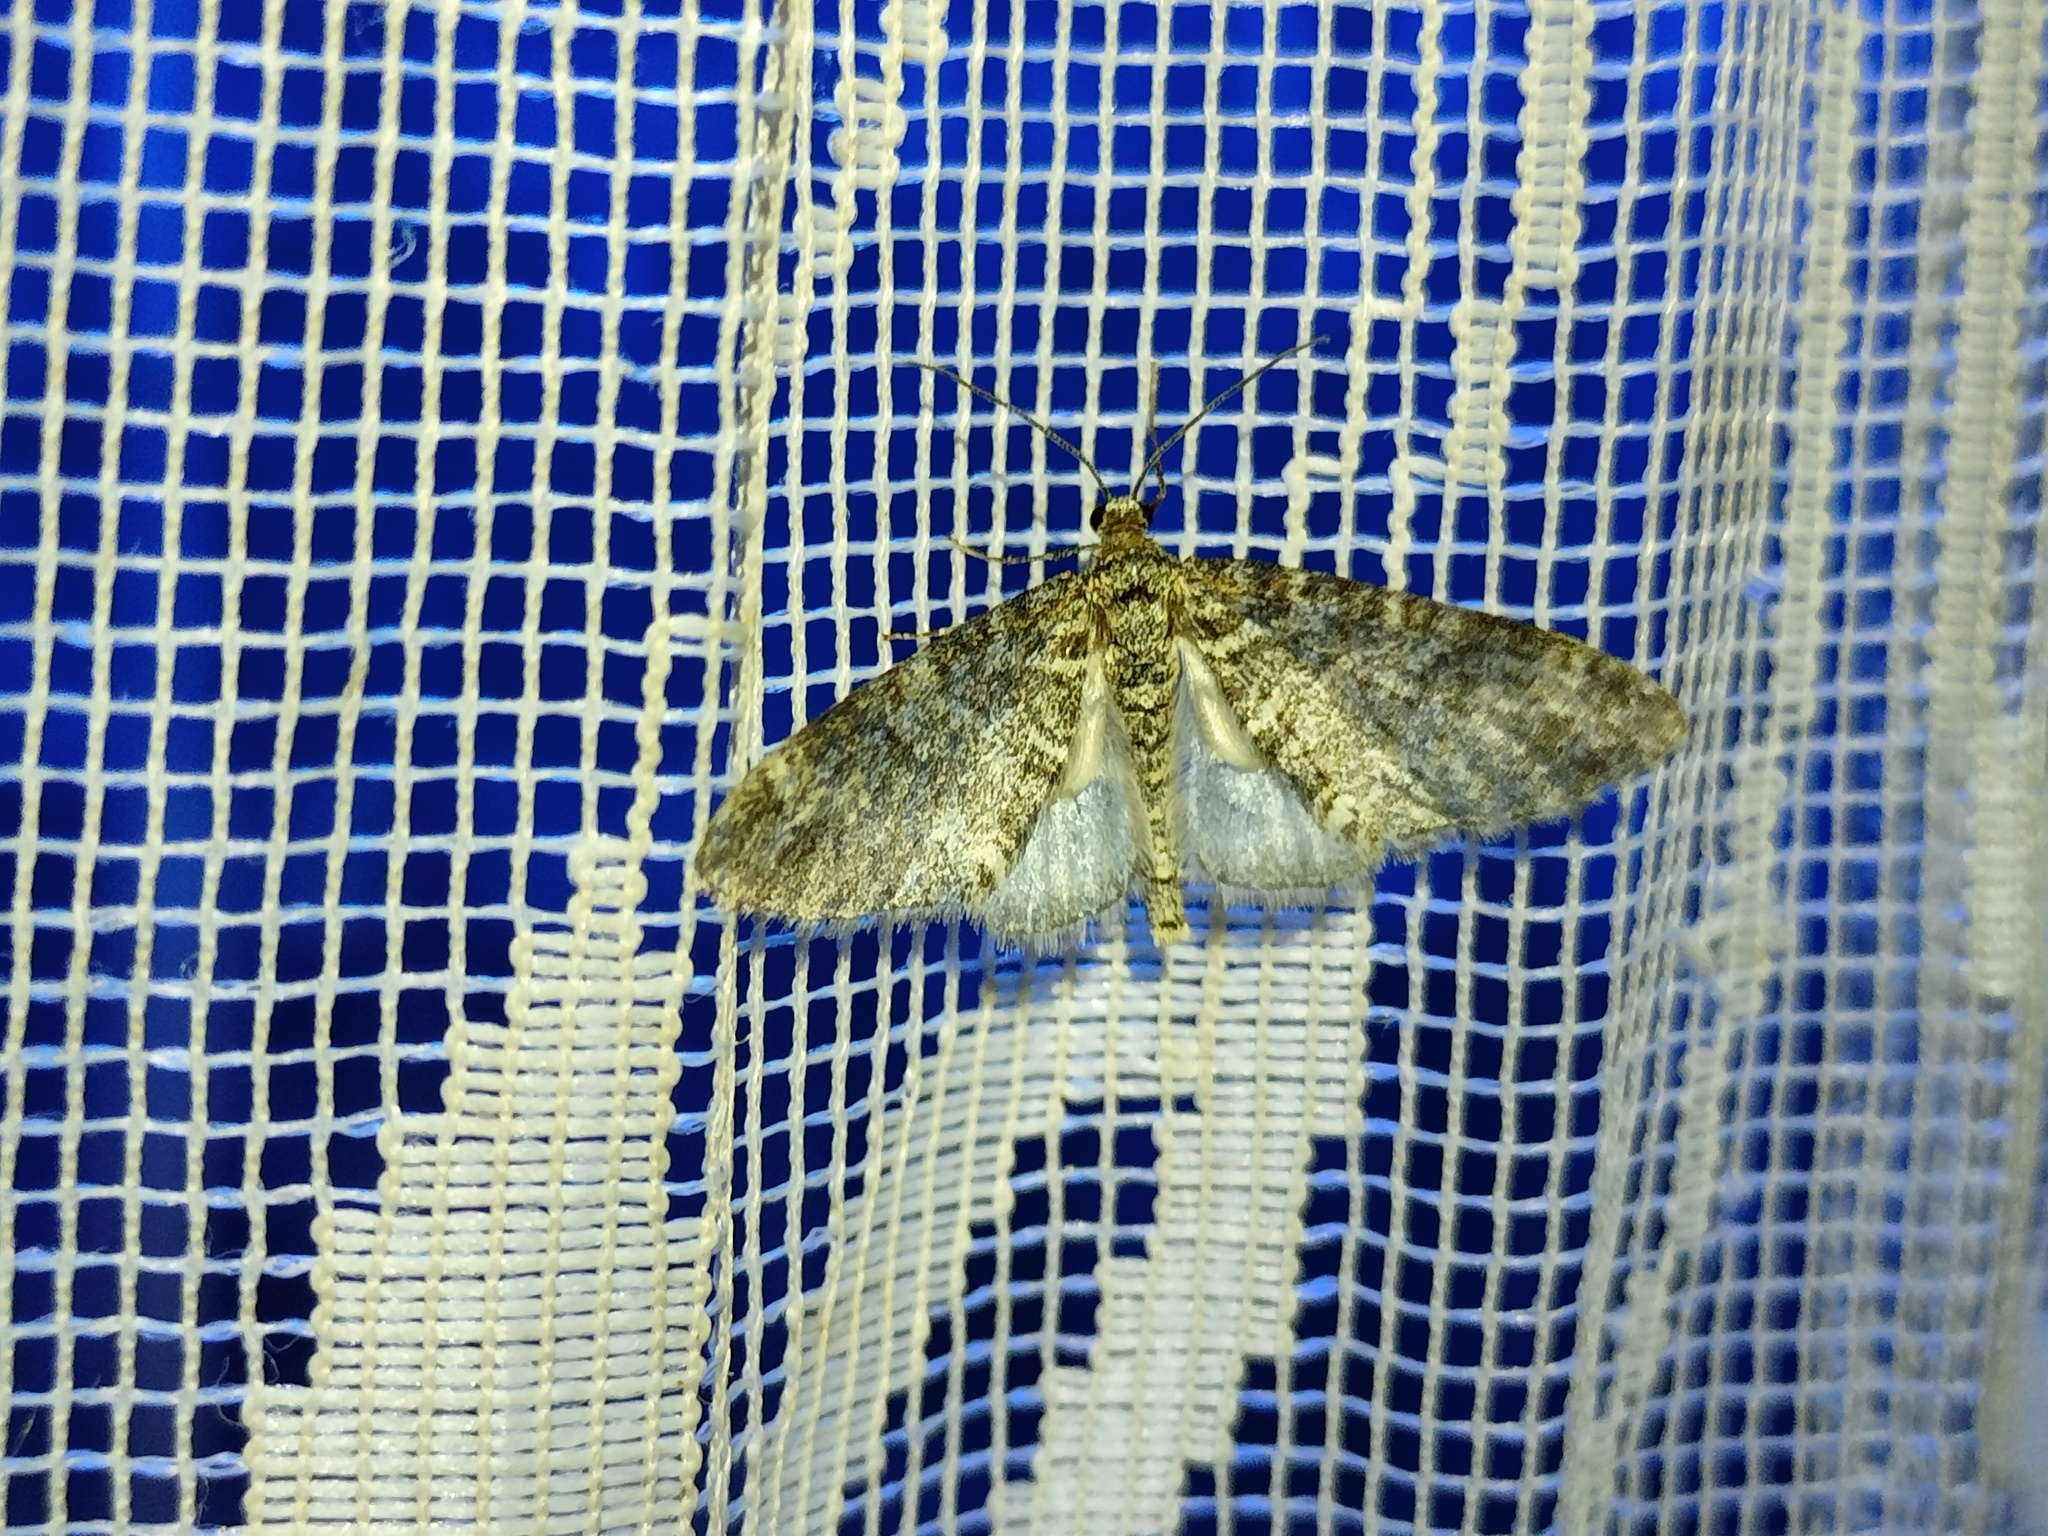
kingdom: Animalia
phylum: Arthropoda
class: Insecta
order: Lepidoptera
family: Geometridae
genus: Lobophora
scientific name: Lobophora halterata
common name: Seraphim
